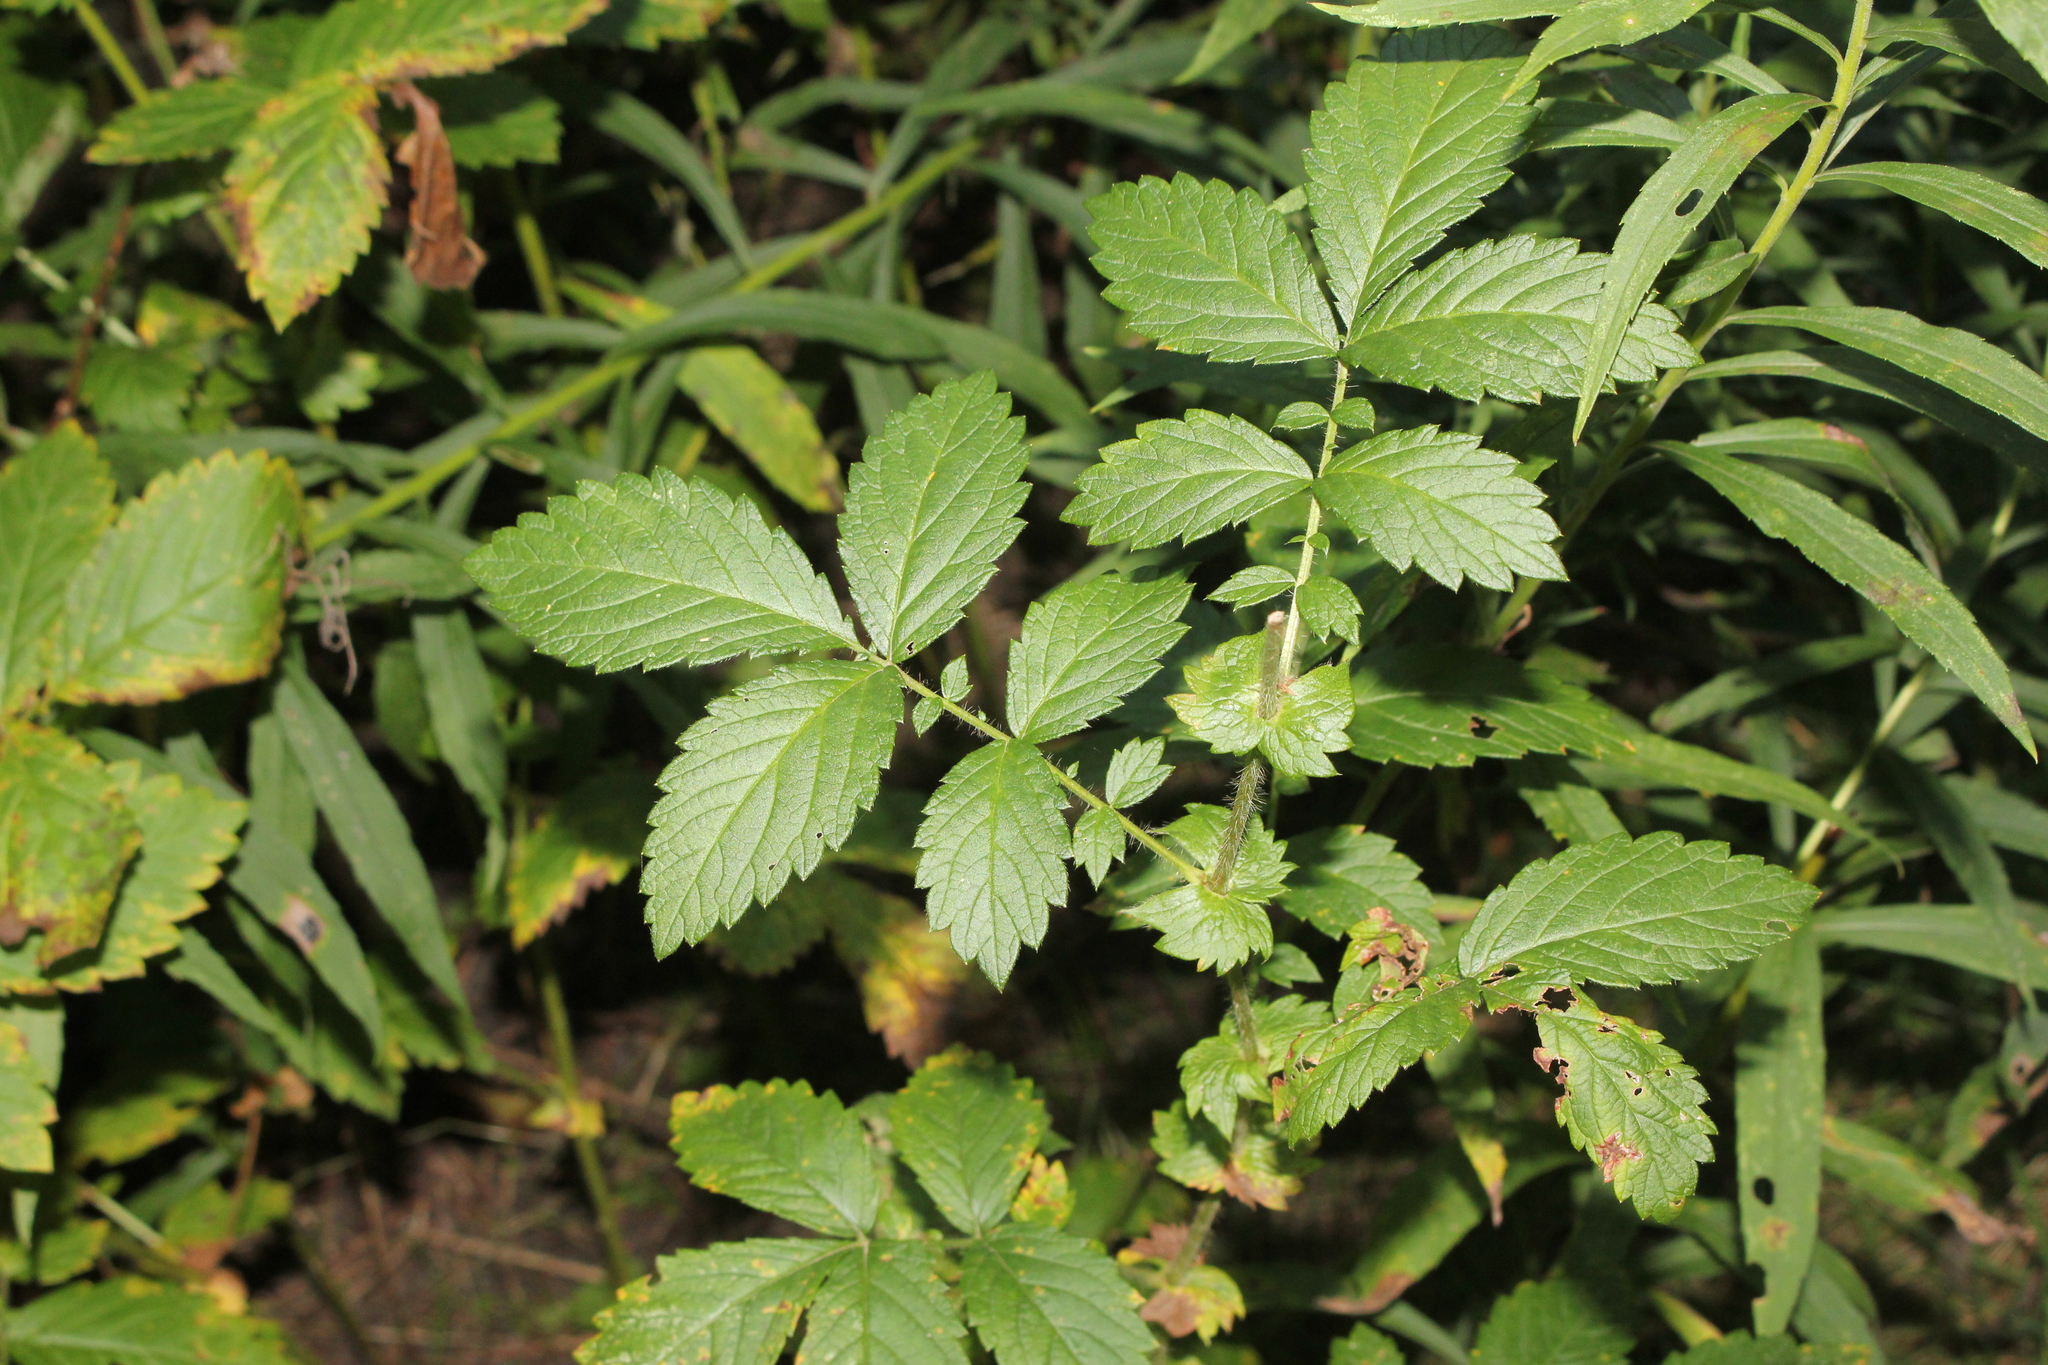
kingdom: Plantae
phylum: Tracheophyta
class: Magnoliopsida
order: Rosales
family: Rosaceae
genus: Agrimonia
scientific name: Agrimonia gryposepala
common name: Common agrimony
